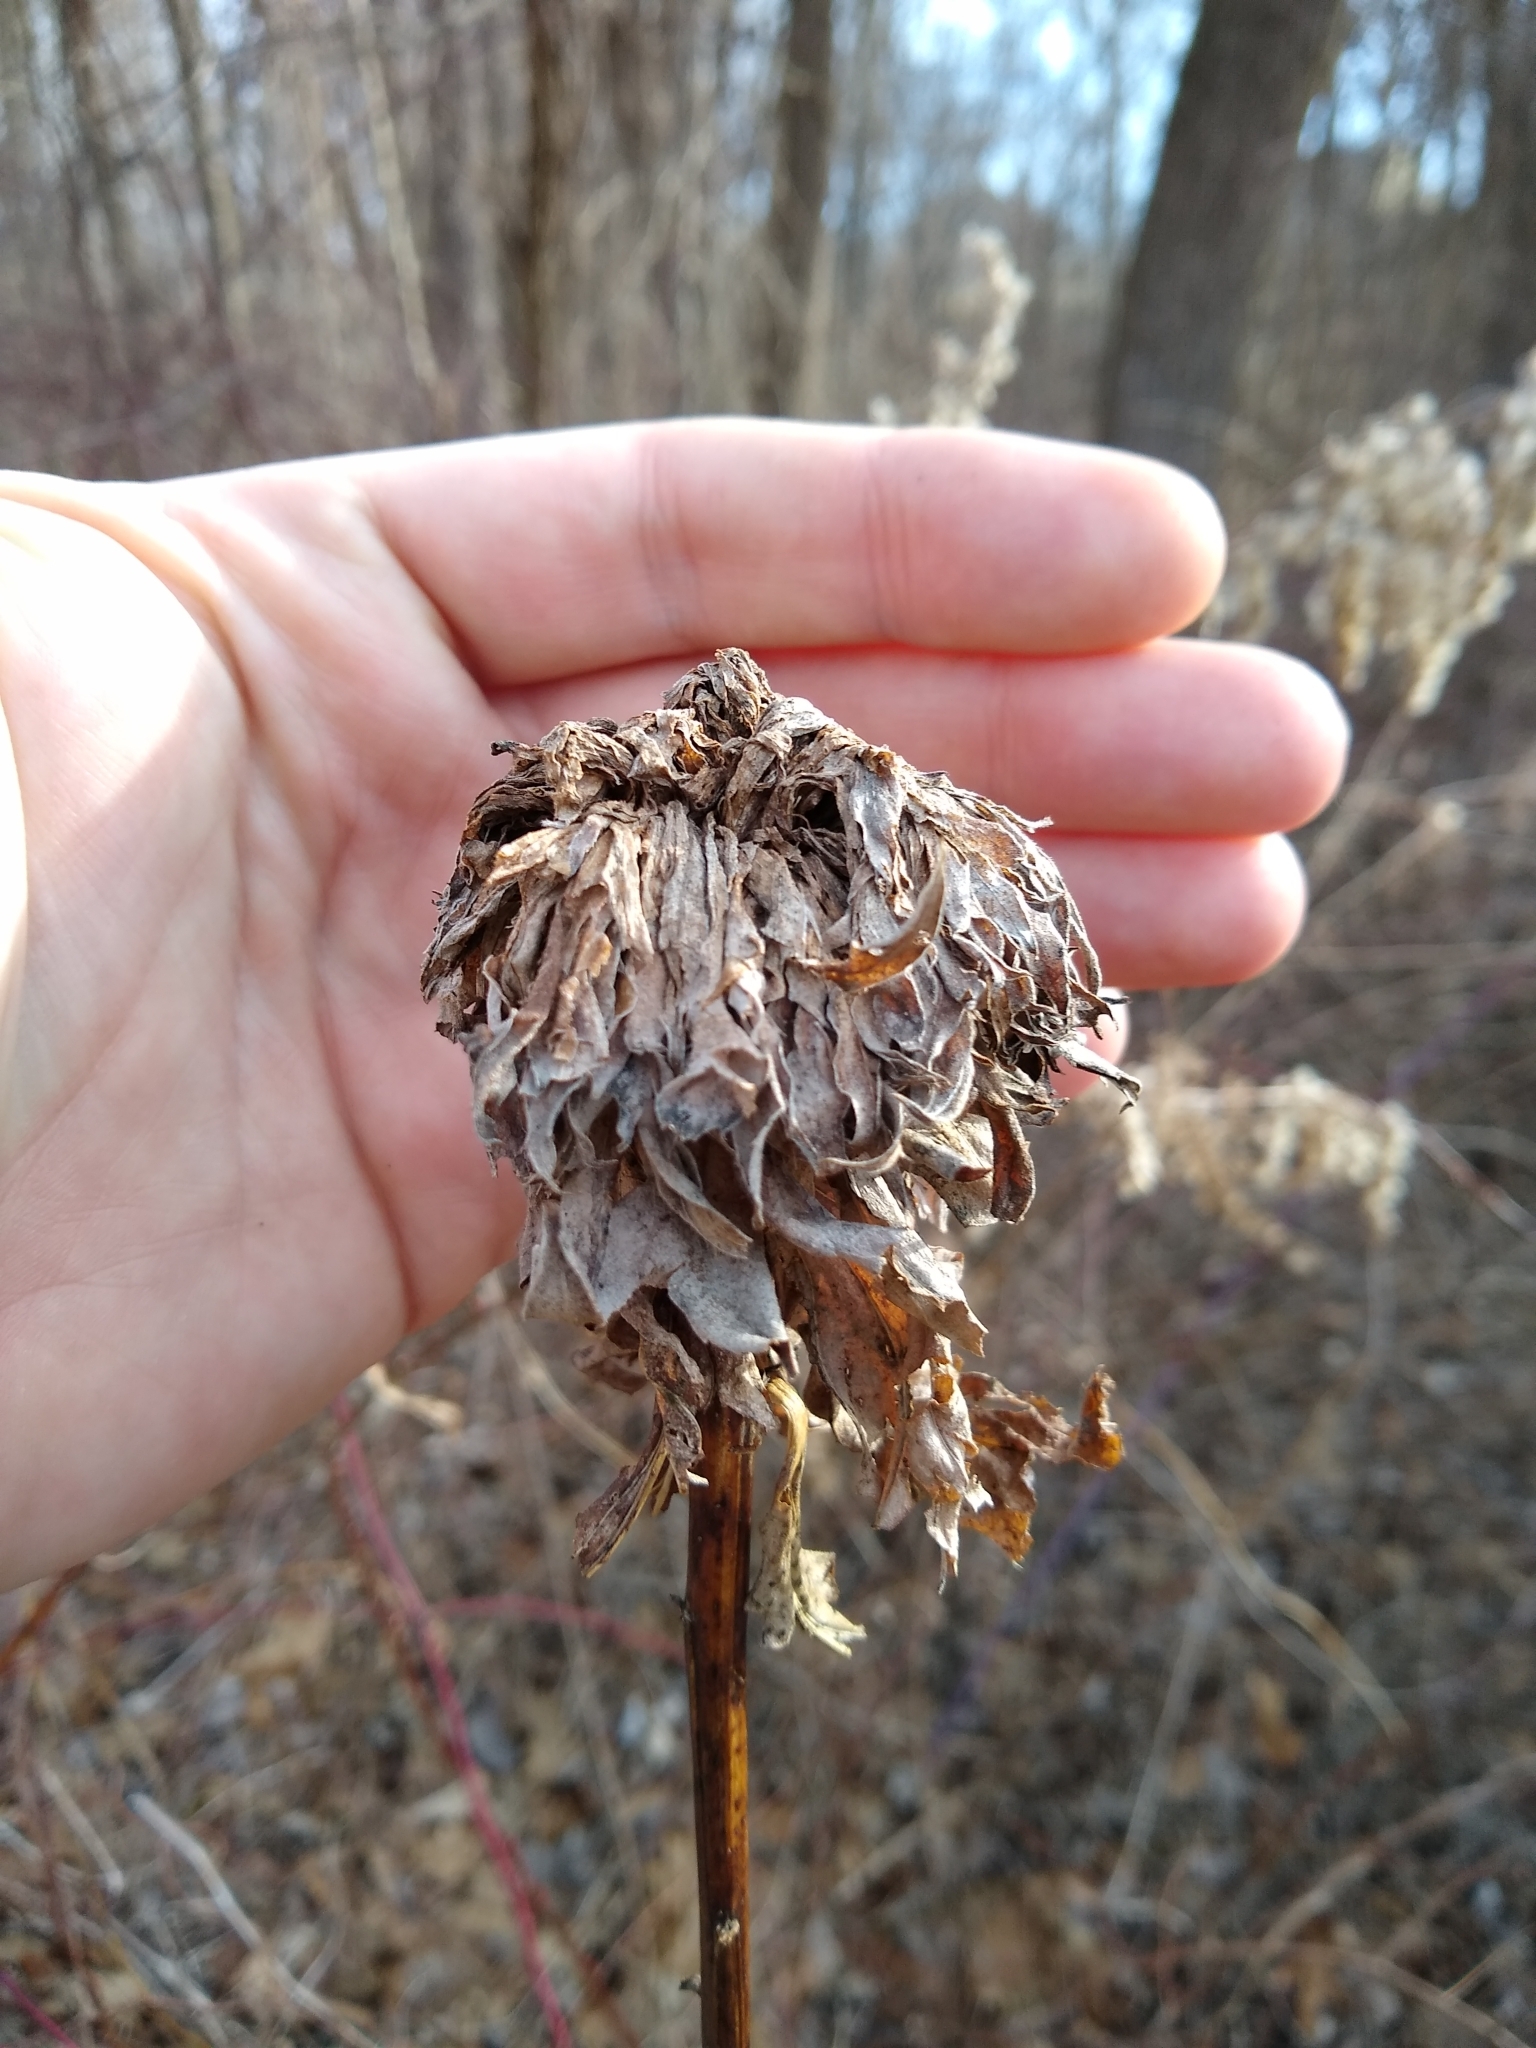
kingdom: Plantae
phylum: Tracheophyta
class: Magnoliopsida
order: Asterales
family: Asteraceae
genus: Solidago
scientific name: Solidago altissima
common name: Late goldenrod
